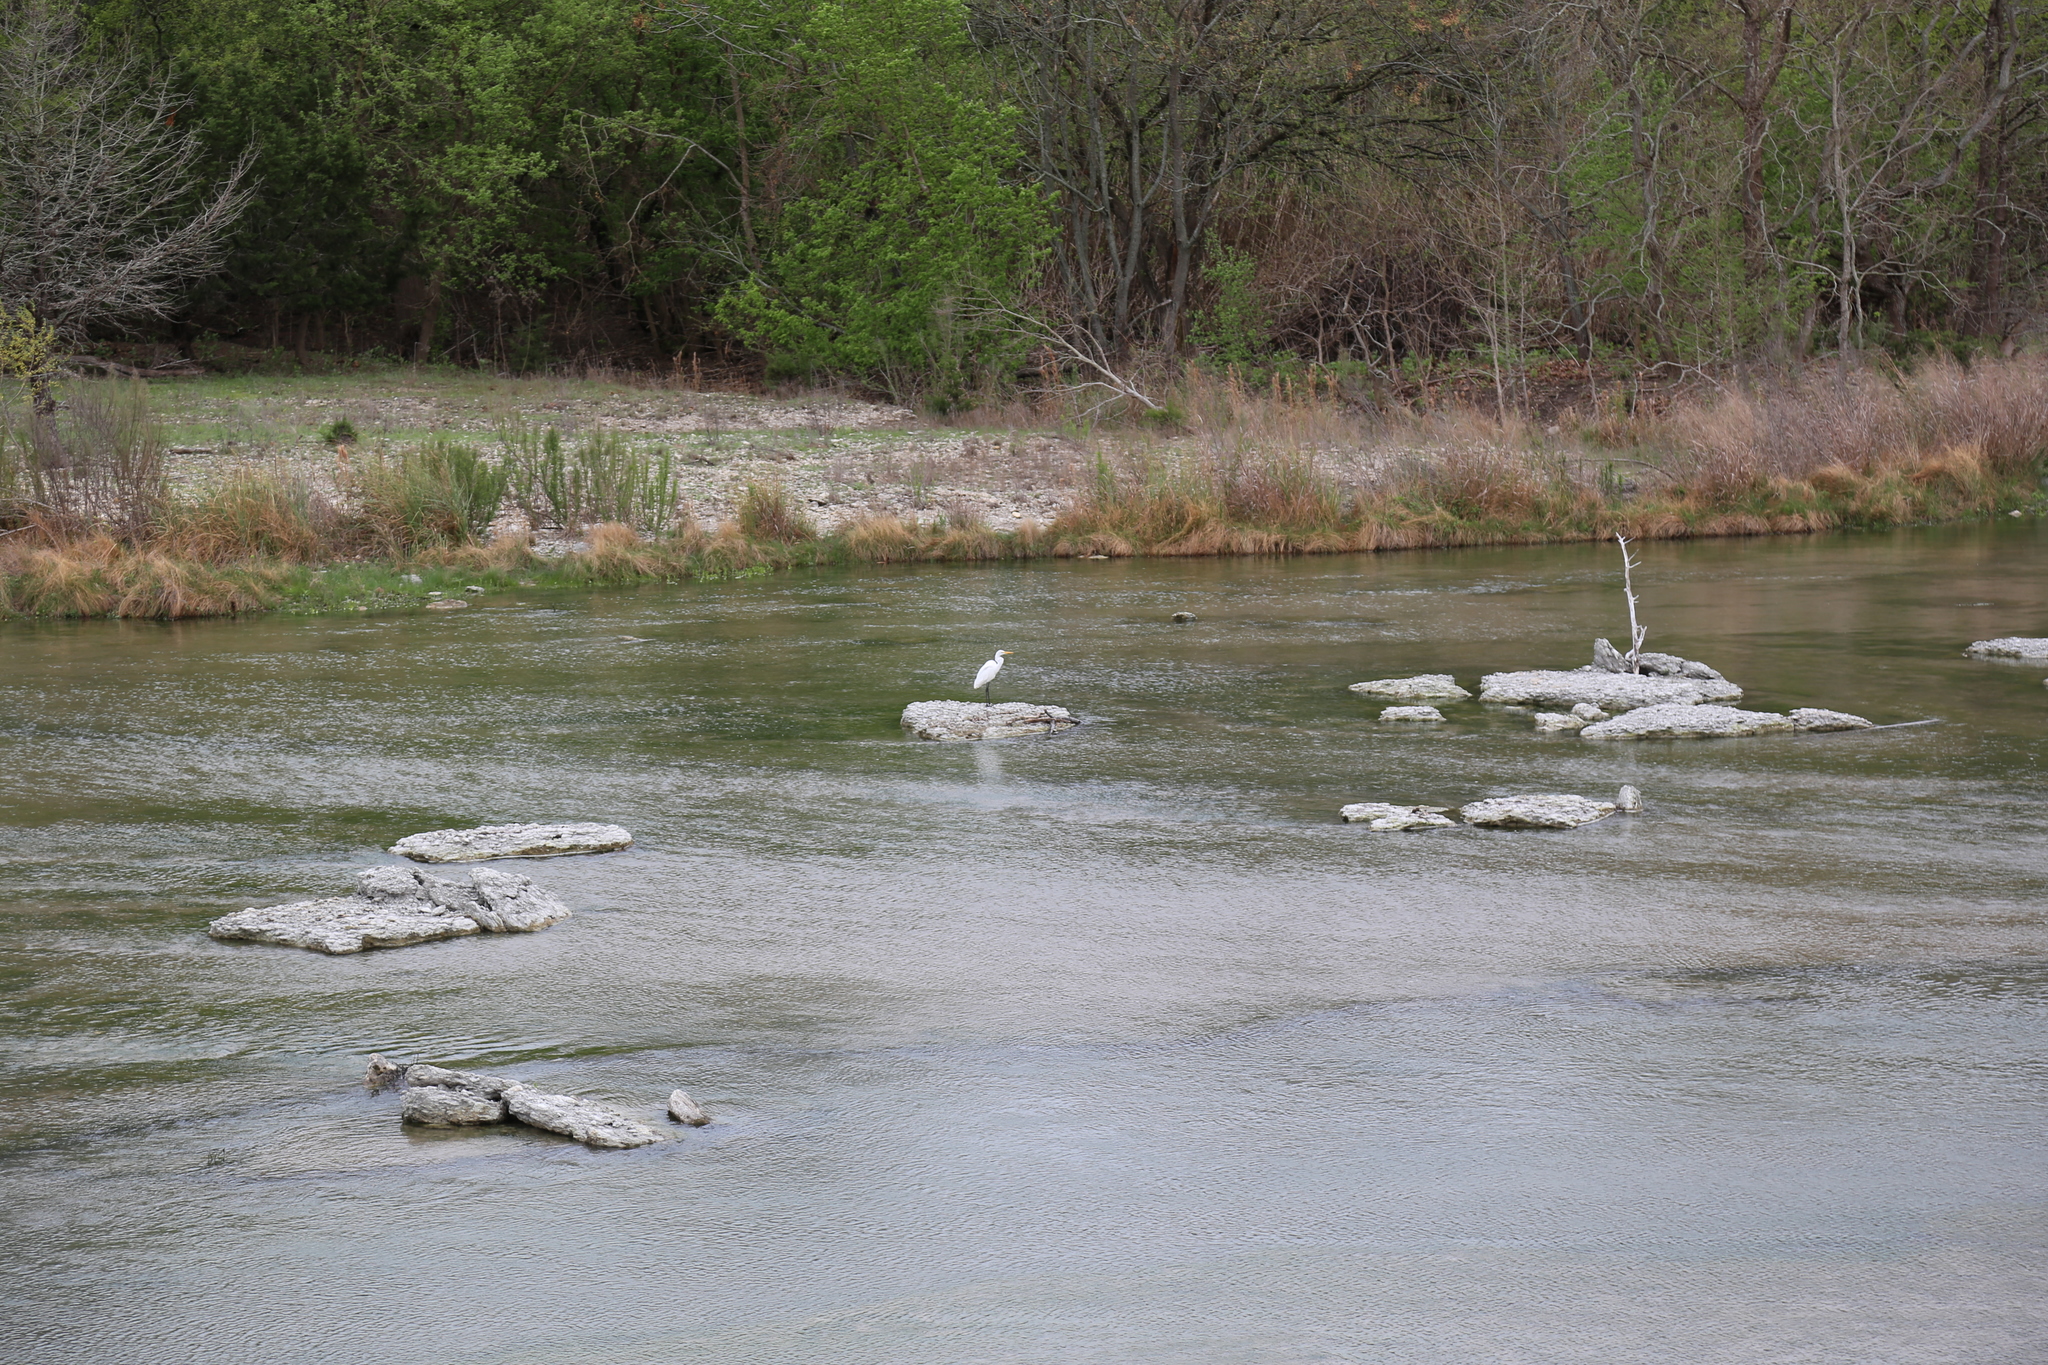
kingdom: Animalia
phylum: Chordata
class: Aves
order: Pelecaniformes
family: Ardeidae
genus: Ardea
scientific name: Ardea alba
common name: Great egret
